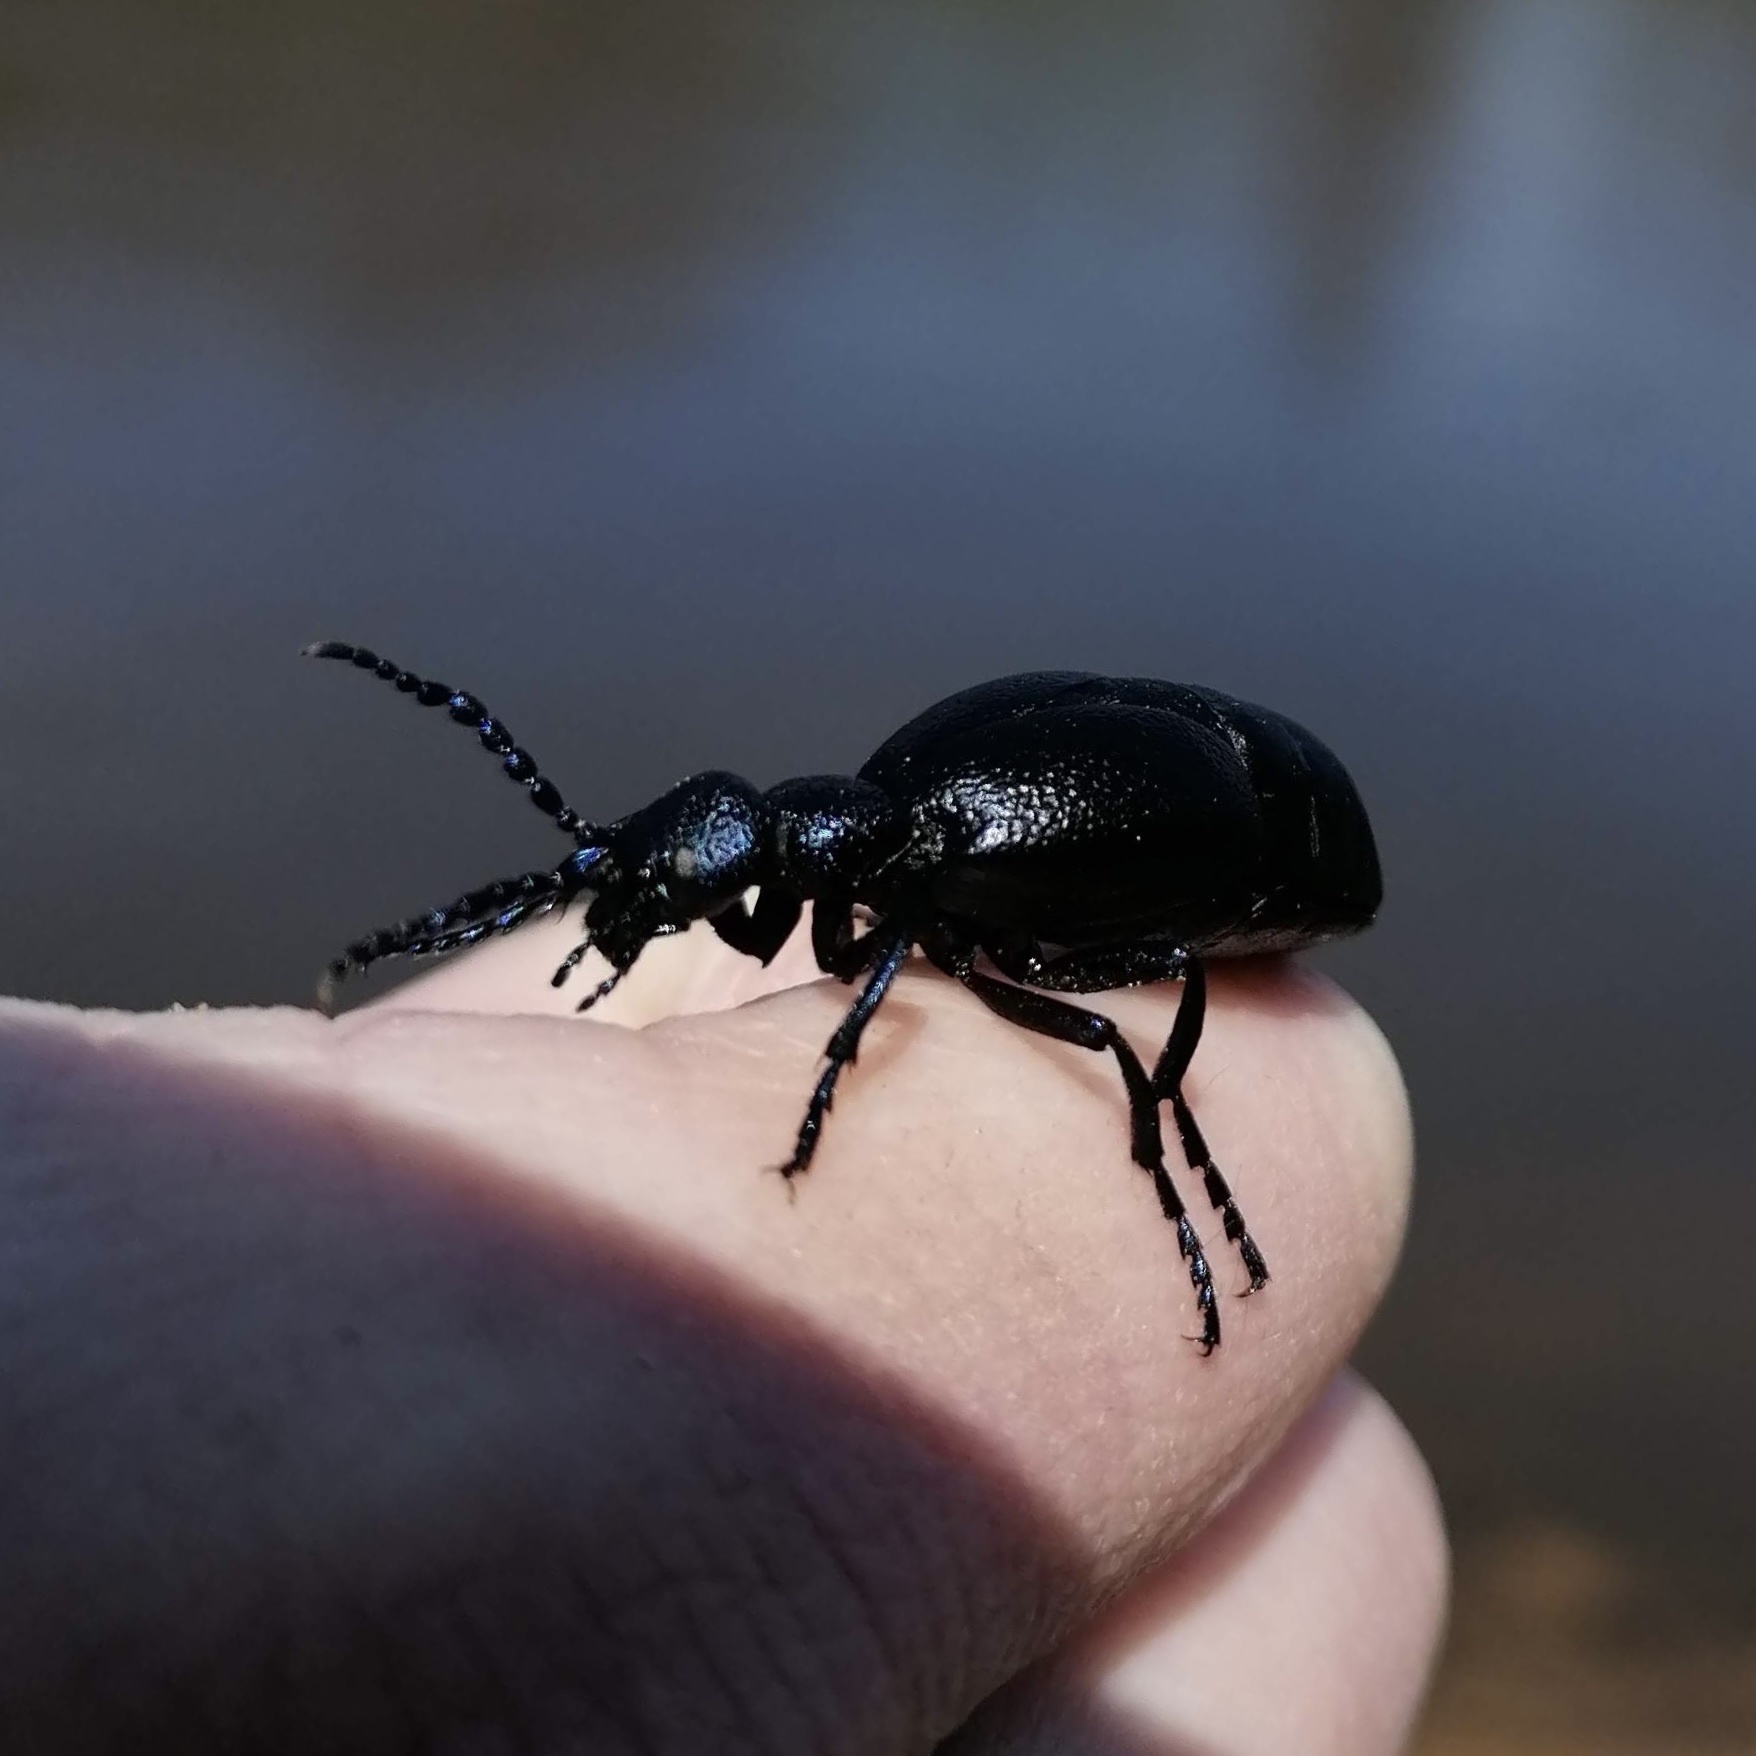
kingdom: Animalia
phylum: Arthropoda
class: Insecta
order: Coleoptera
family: Meloidae
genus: Meloe
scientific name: Meloe proscarabaeus
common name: Black oil-beetle
